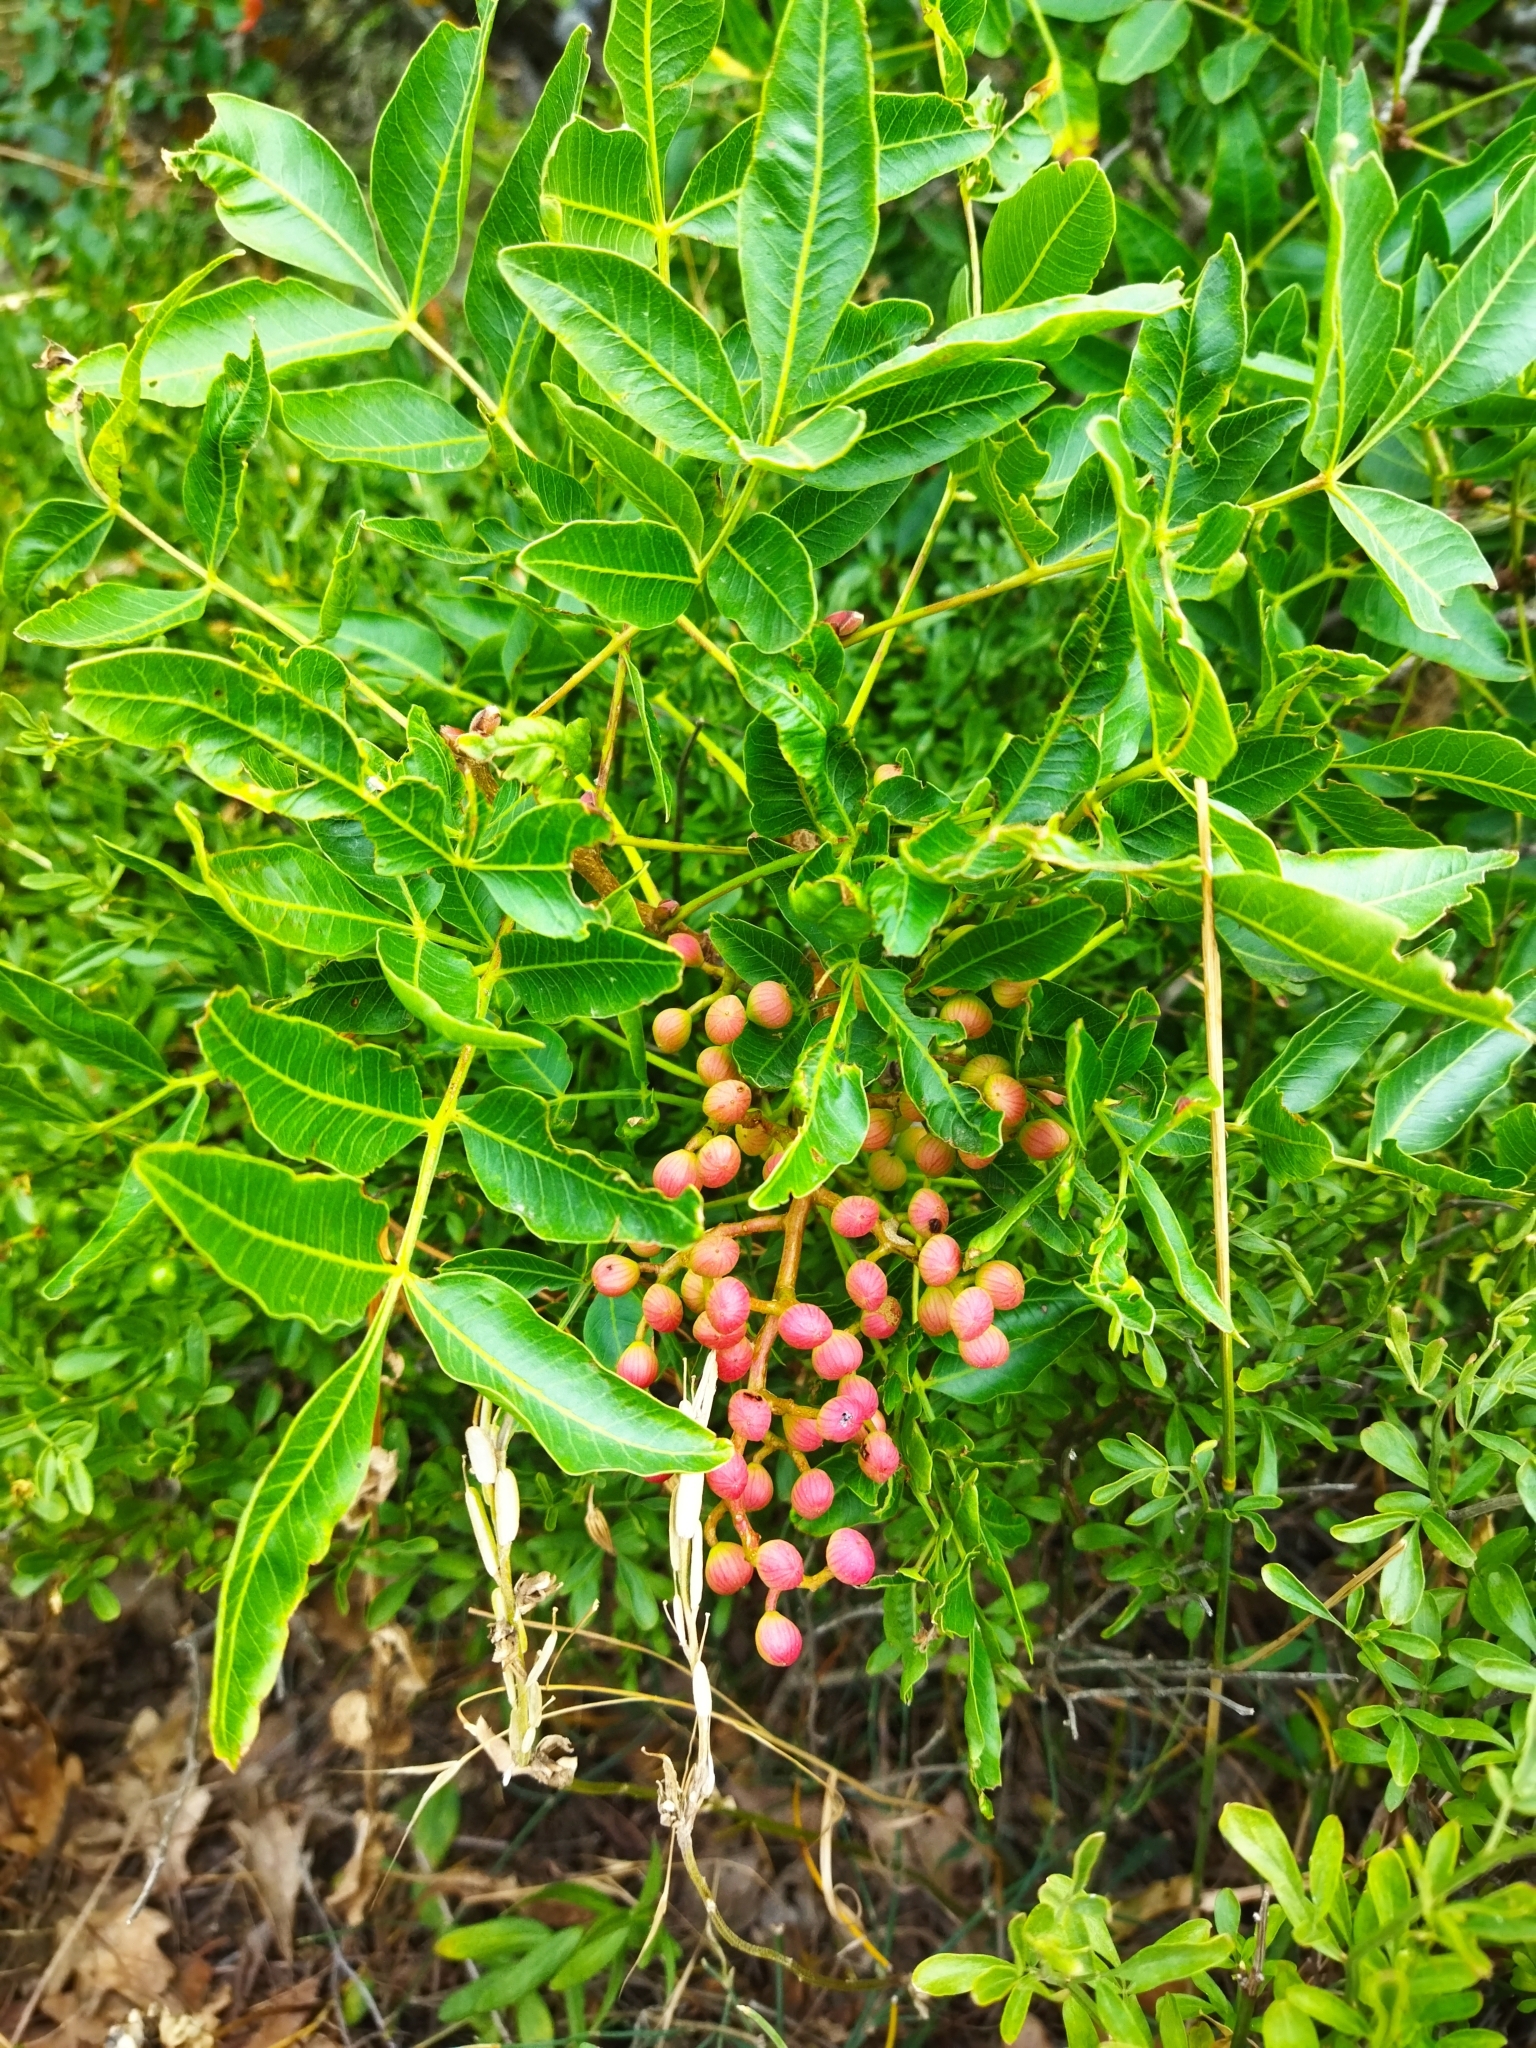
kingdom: Plantae
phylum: Tracheophyta
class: Magnoliopsida
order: Sapindales
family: Anacardiaceae
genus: Pistacia
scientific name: Pistacia atlantica
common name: Mt. atlas mastic tree
